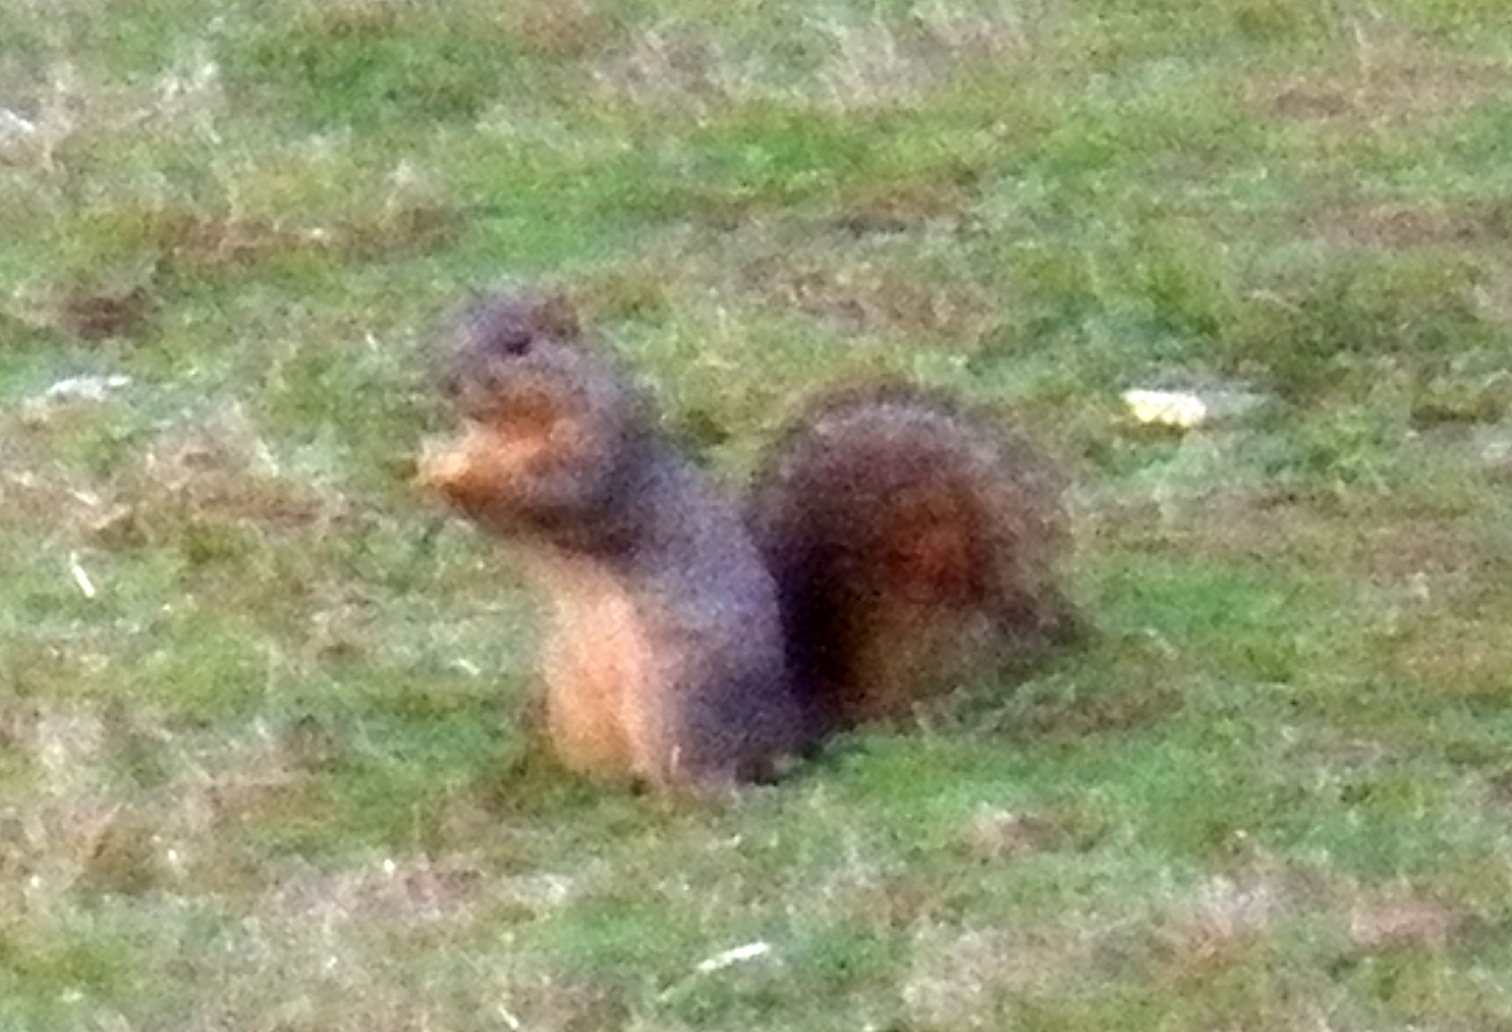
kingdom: Animalia
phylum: Chordata
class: Mammalia
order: Rodentia
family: Sciuridae
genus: Sciurus
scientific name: Sciurus niger
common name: Fox squirrel
